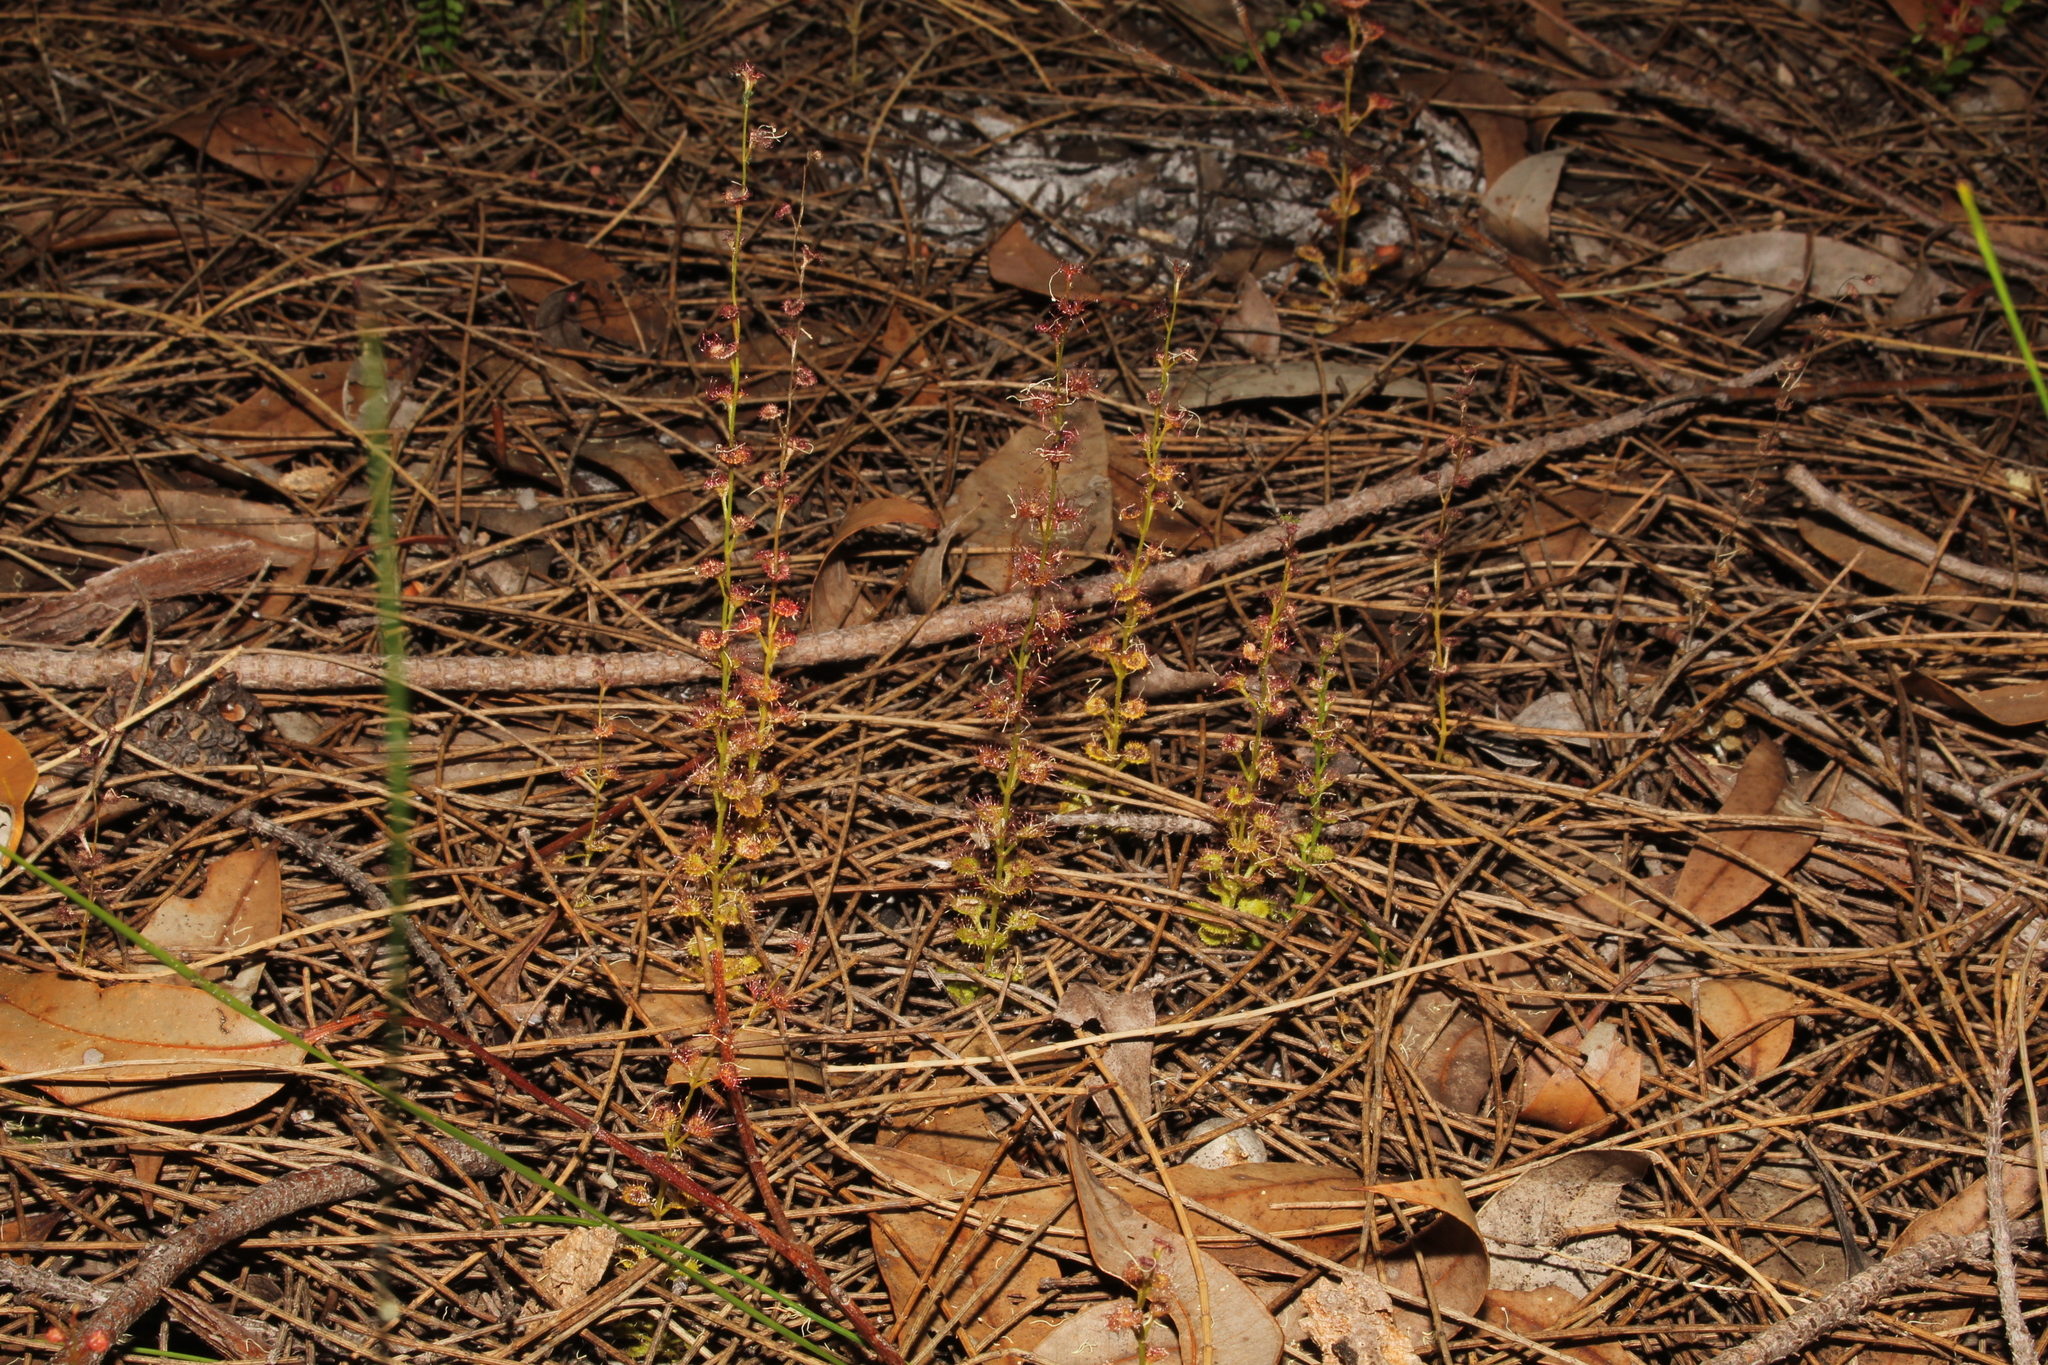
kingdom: Plantae
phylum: Tracheophyta
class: Magnoliopsida
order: Caryophyllales
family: Droseraceae
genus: Drosera
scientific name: Drosera platypoda
